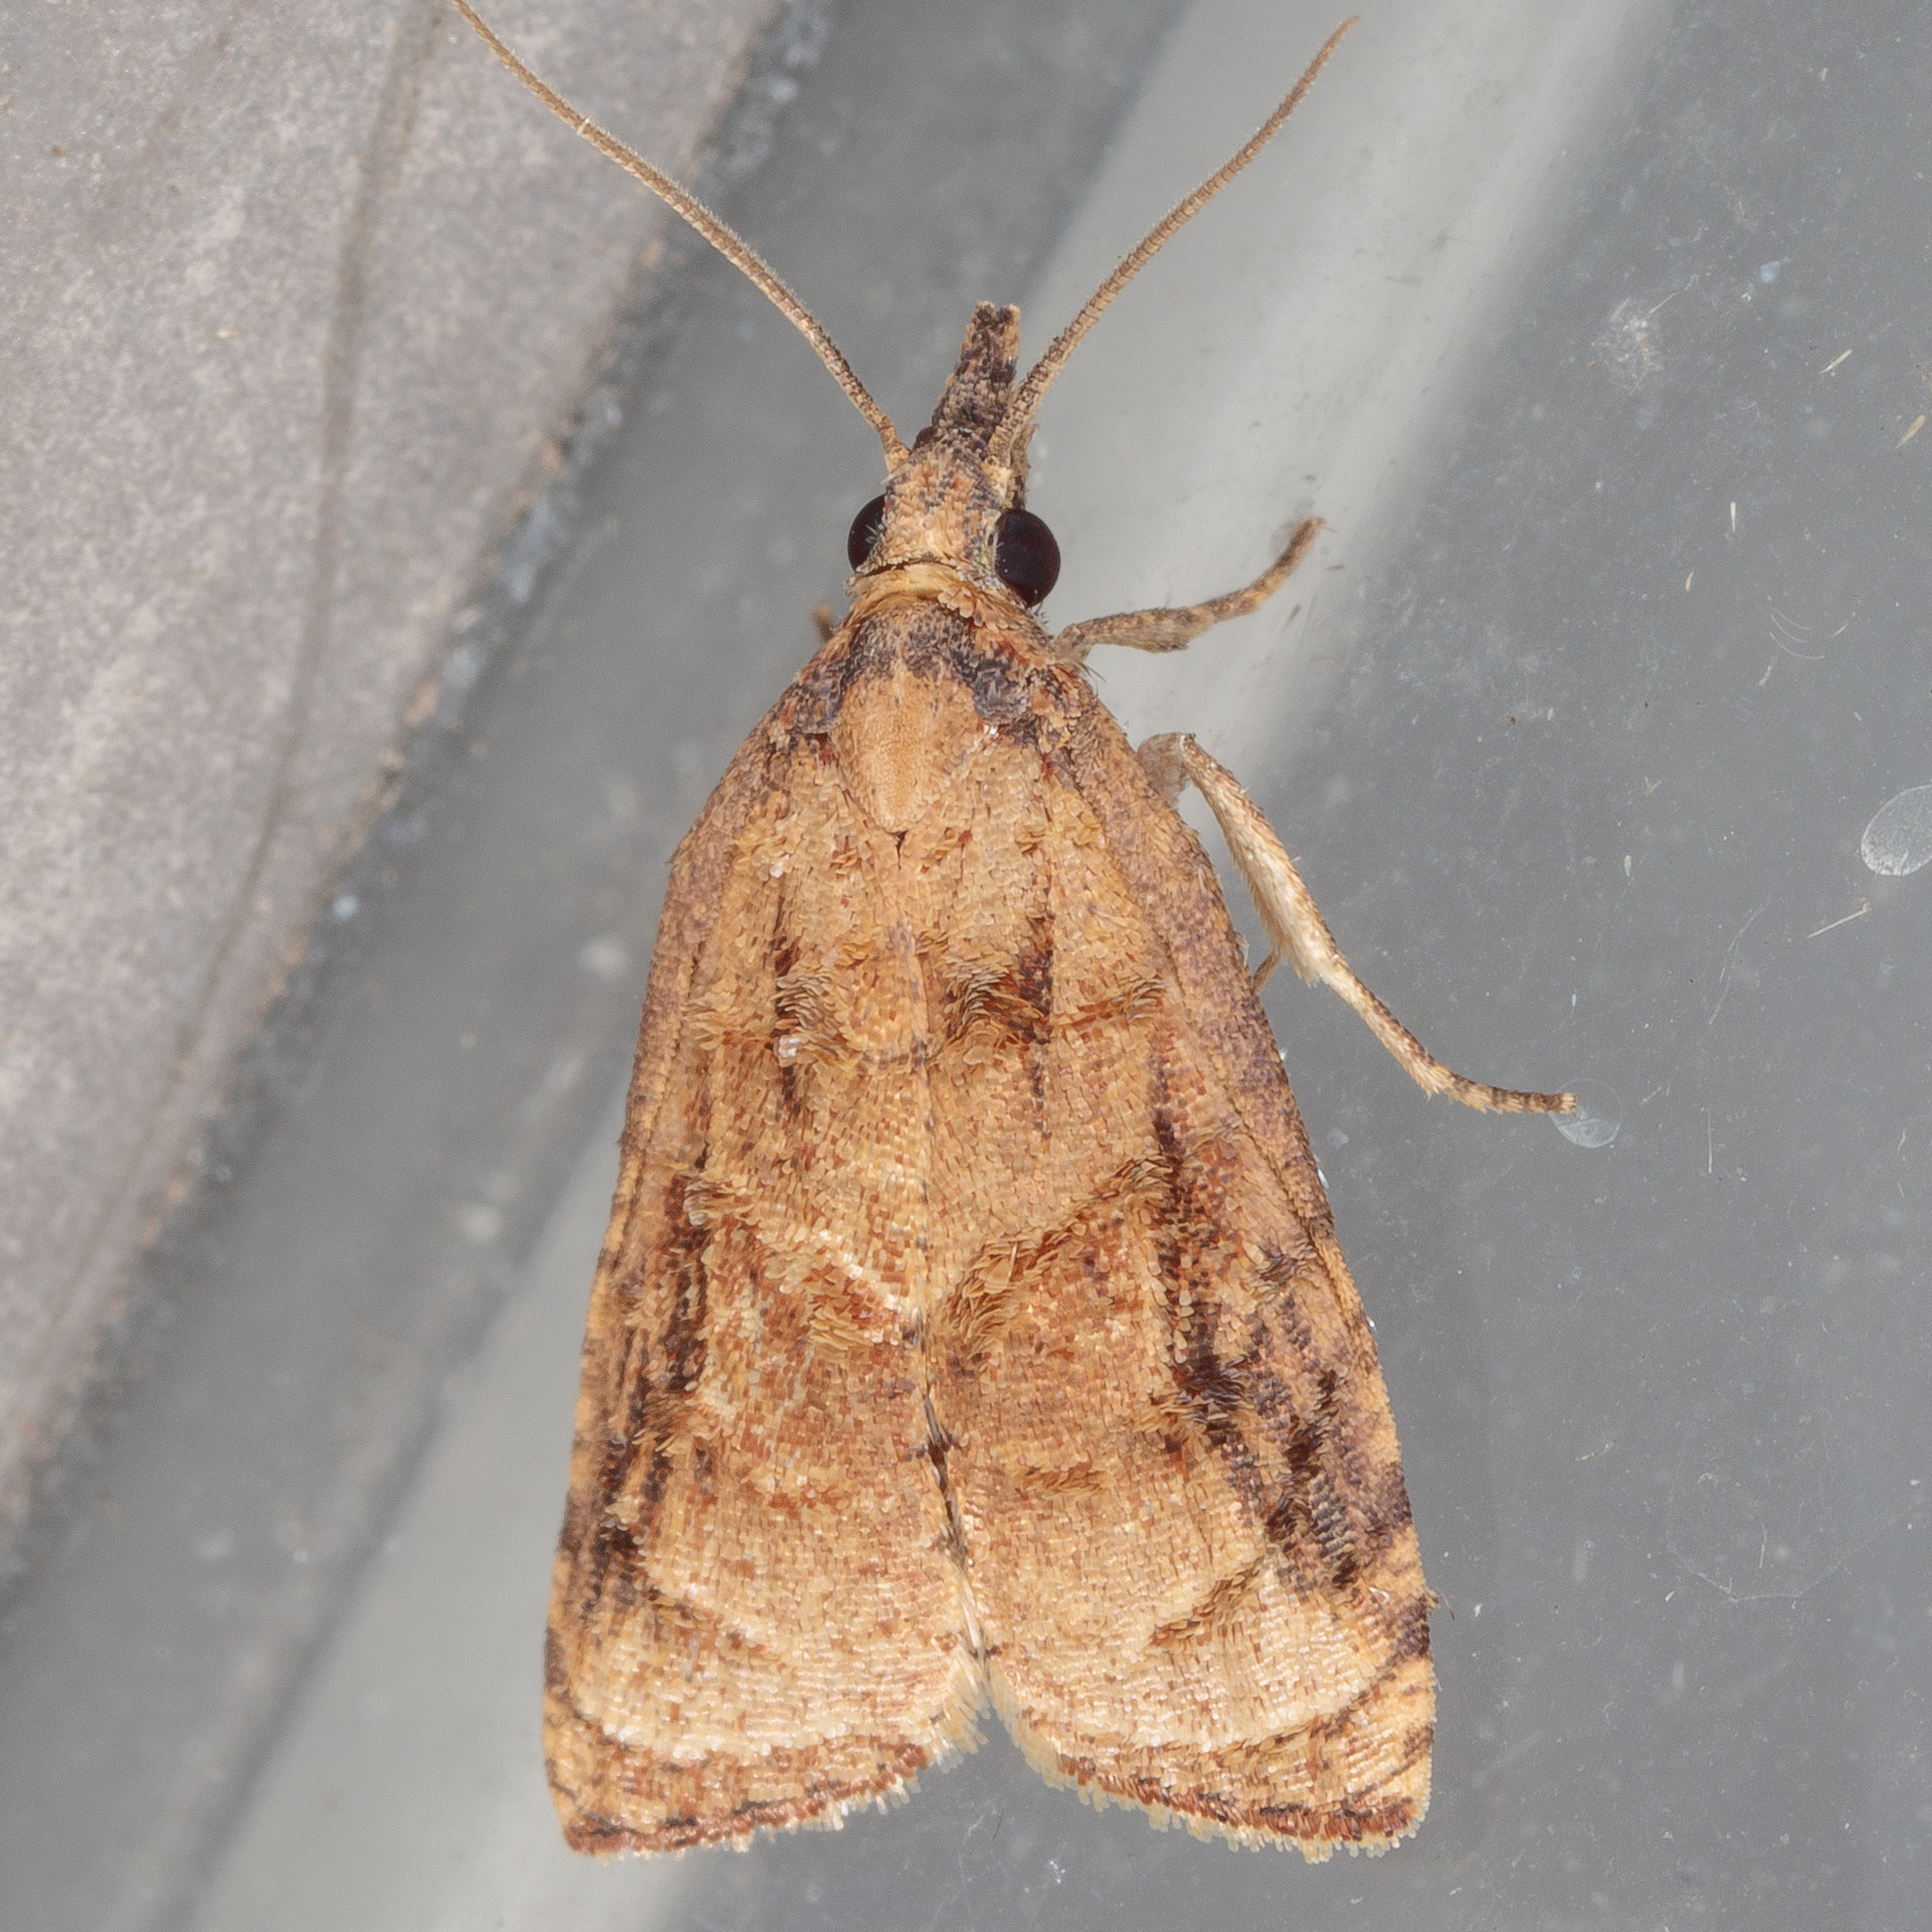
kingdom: Animalia
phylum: Arthropoda
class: Insecta
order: Lepidoptera
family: Tortricidae
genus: Platynota
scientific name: Platynota rostrana
